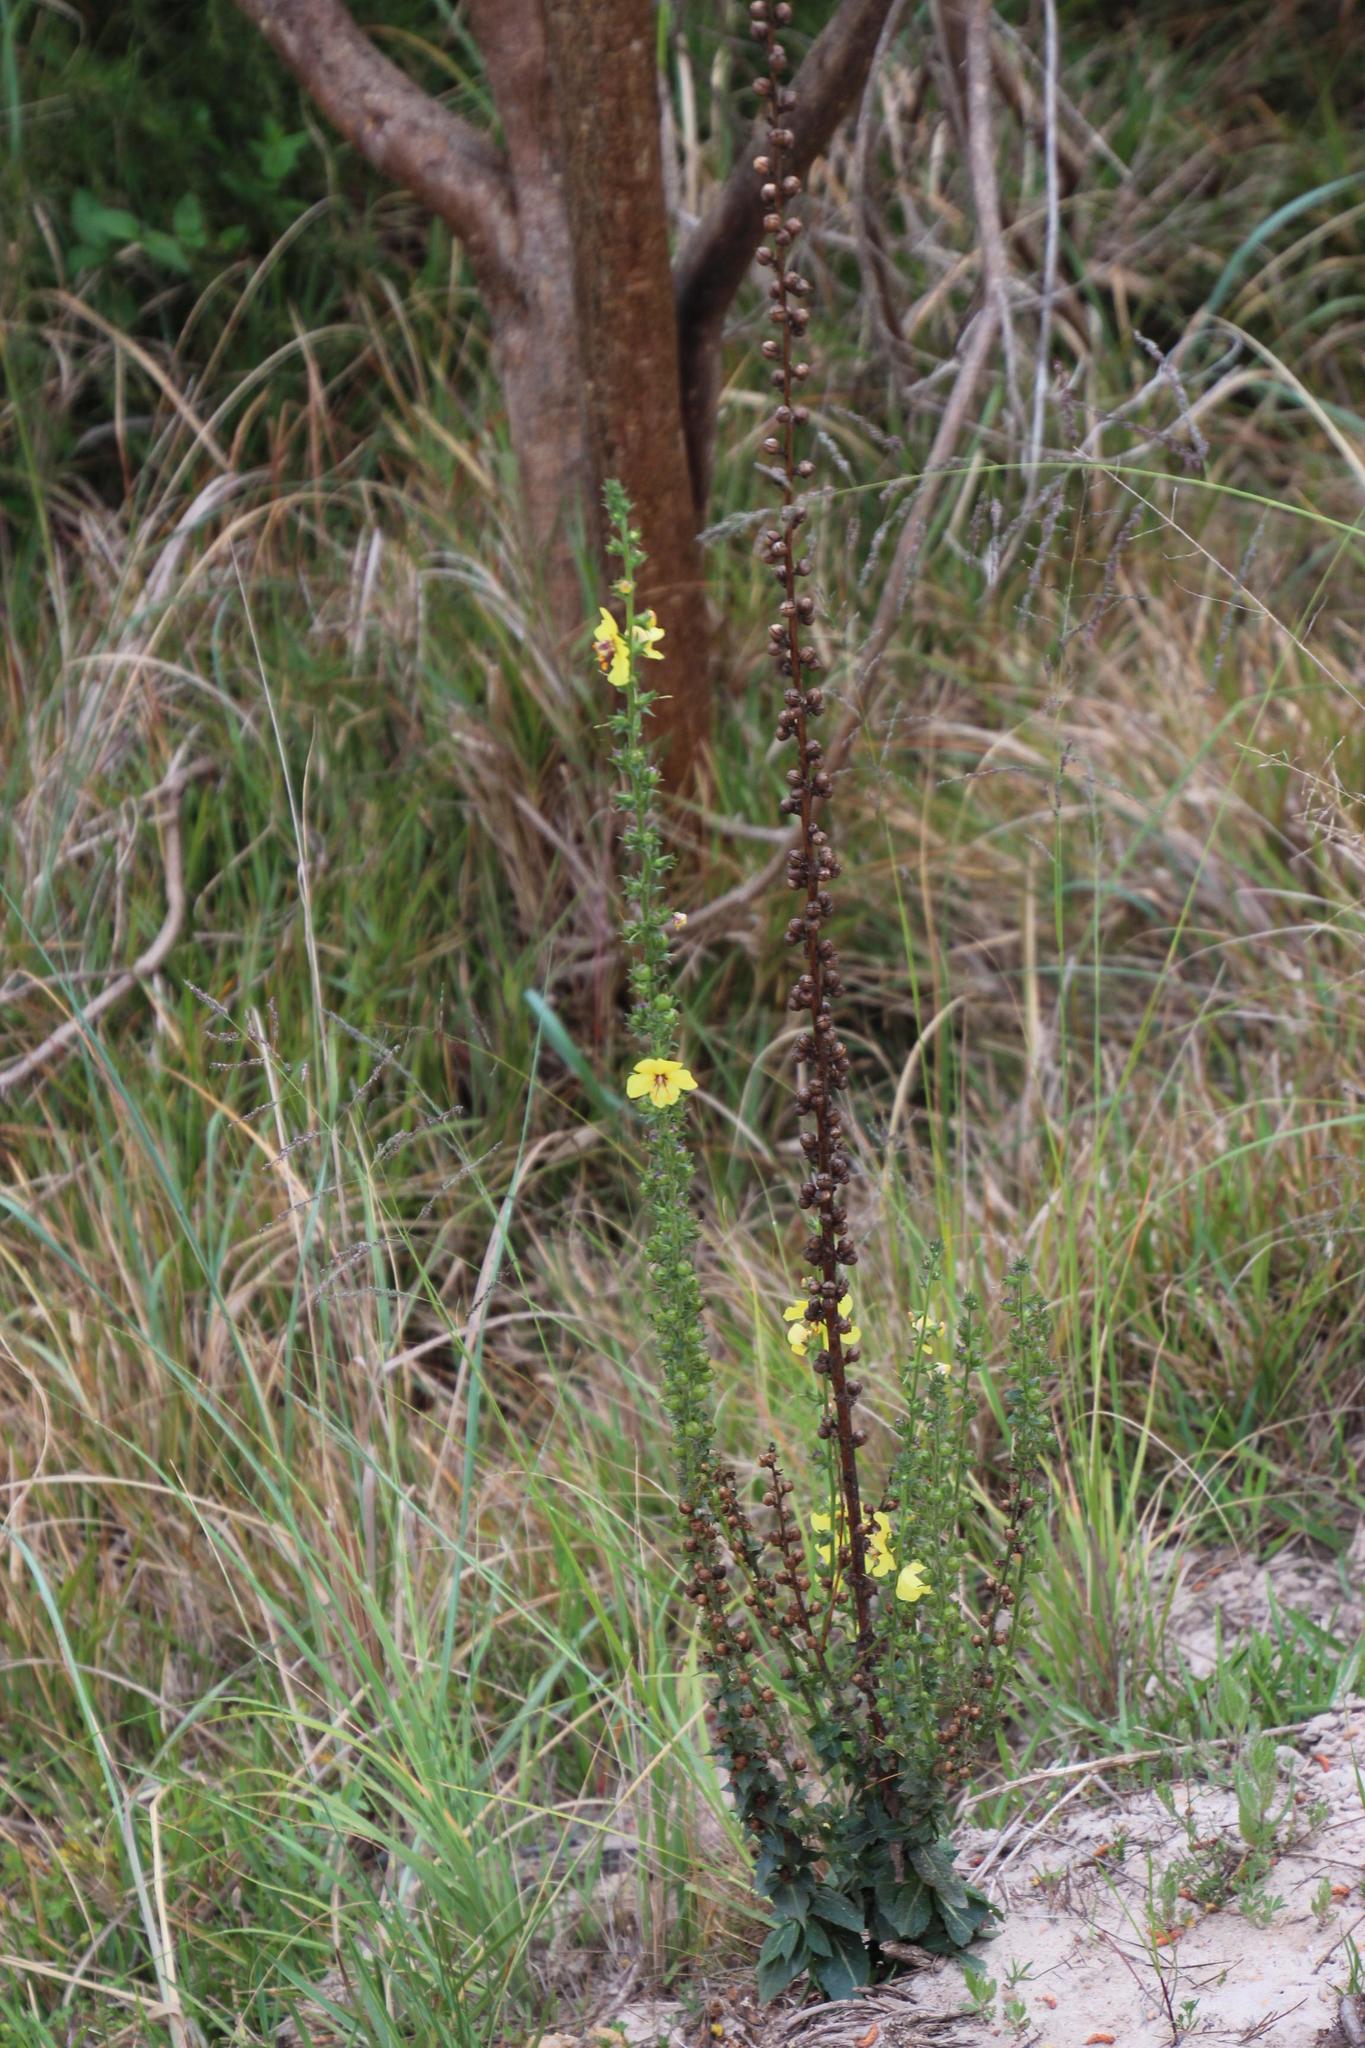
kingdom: Plantae
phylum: Tracheophyta
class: Magnoliopsida
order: Lamiales
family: Scrophulariaceae
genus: Verbascum
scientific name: Verbascum virgatum
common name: Twiggy mullein
